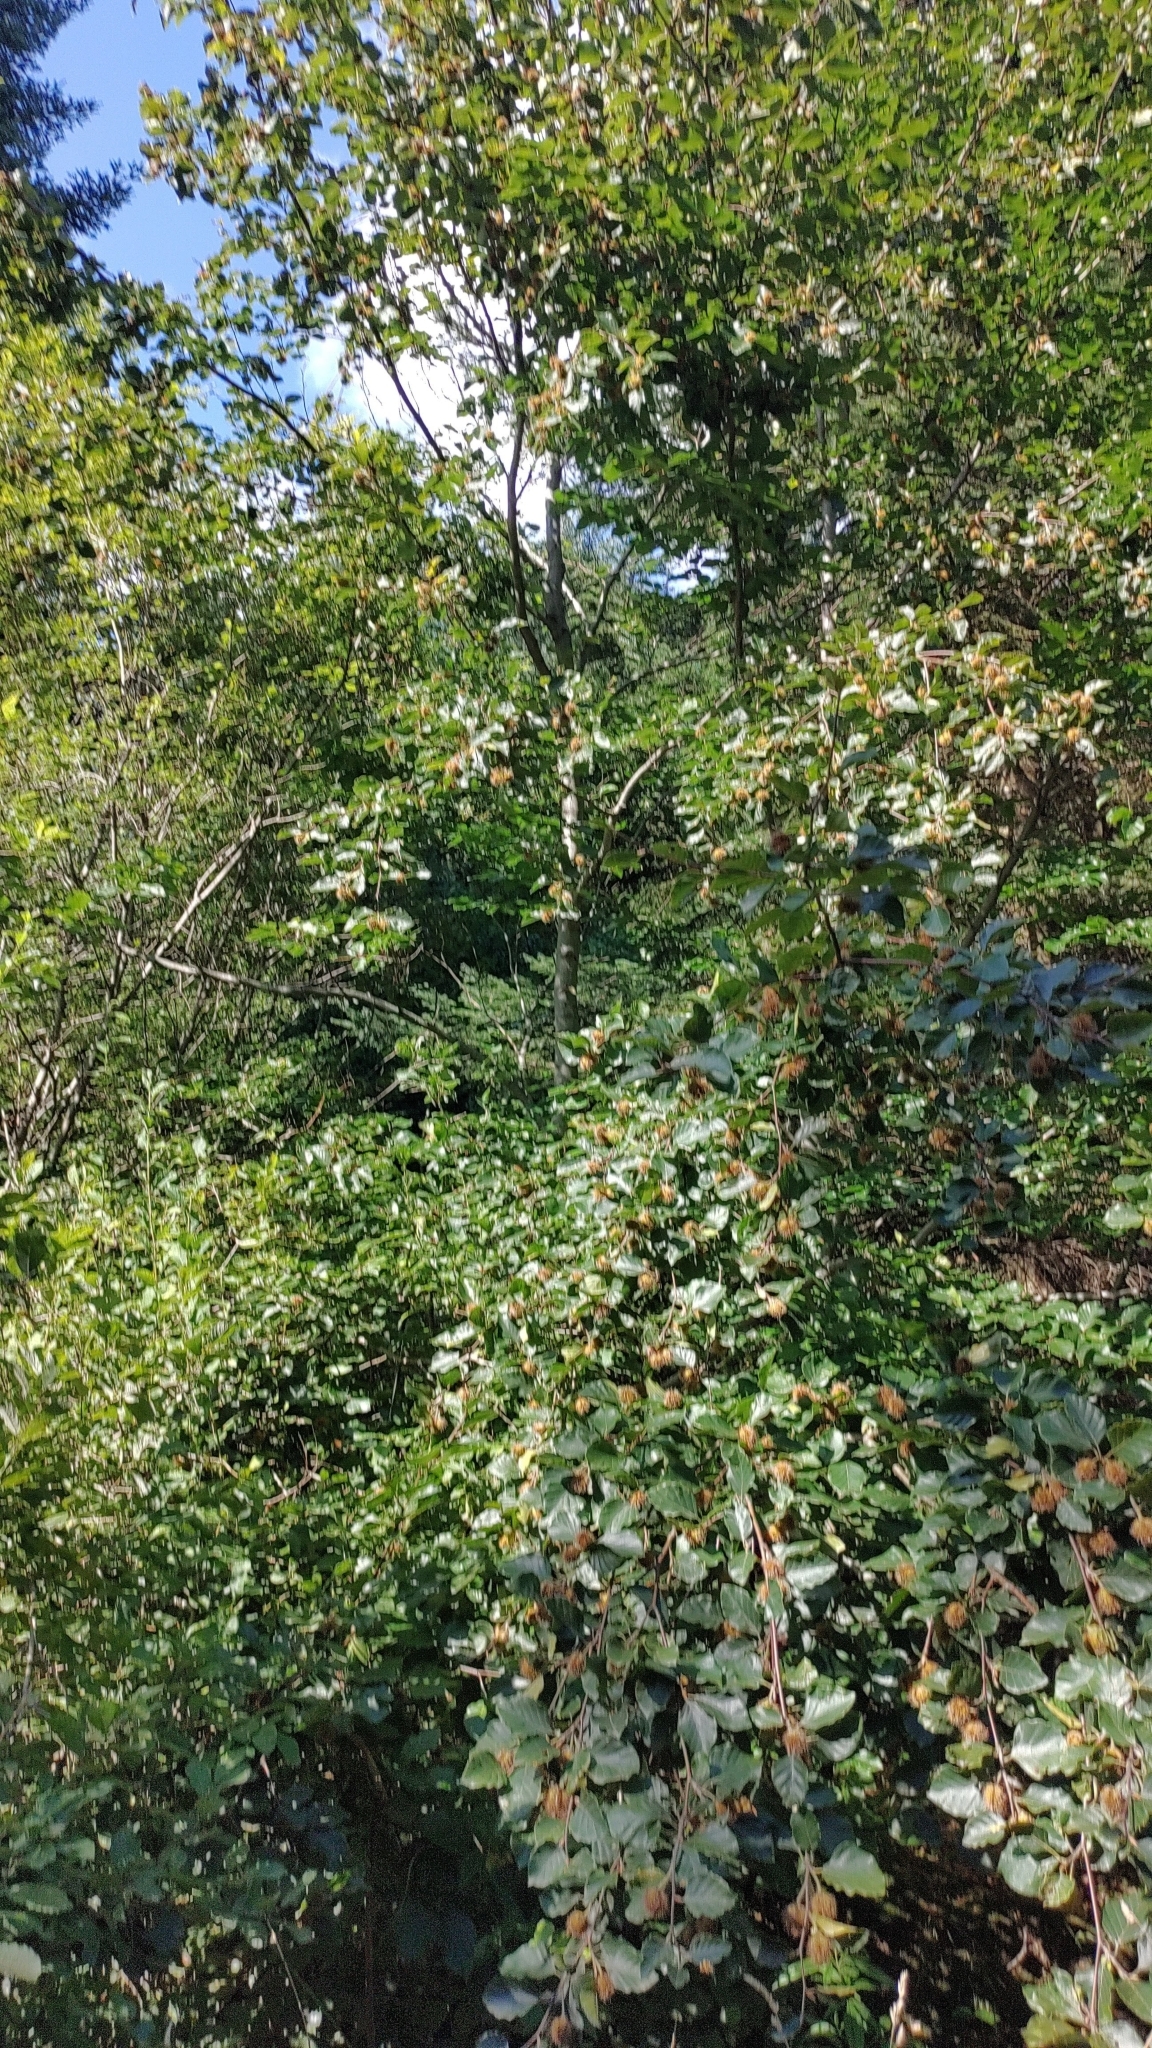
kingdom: Plantae
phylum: Tracheophyta
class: Magnoliopsida
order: Fagales
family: Fagaceae
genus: Fagus
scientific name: Fagus sylvatica
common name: Beech
